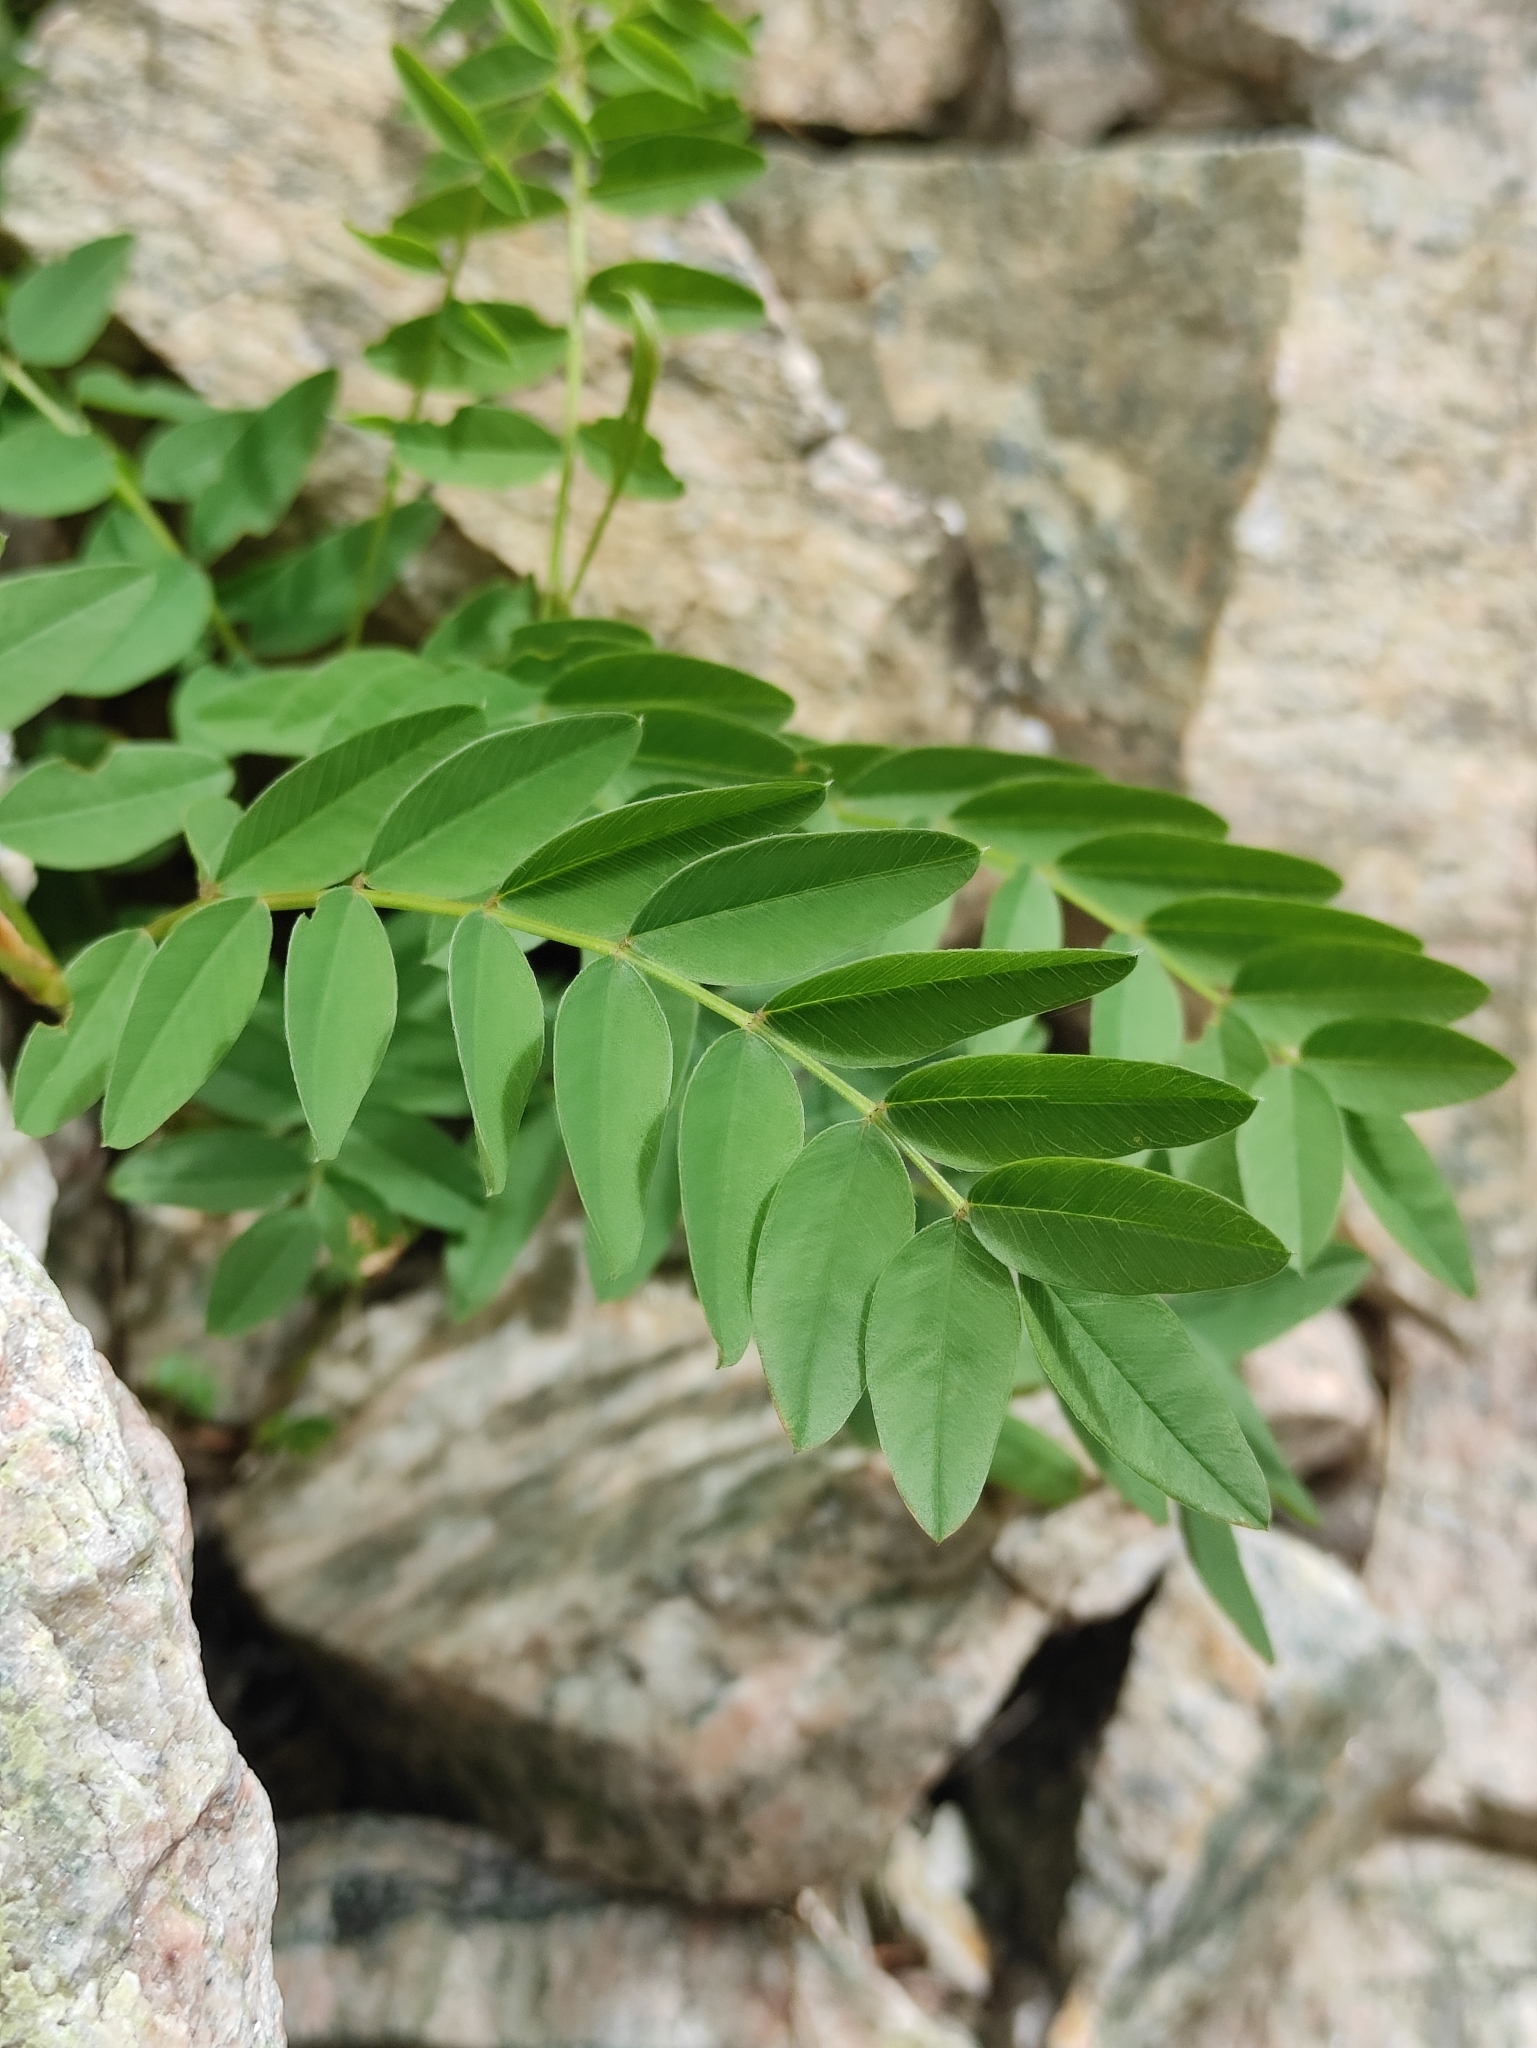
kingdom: Plantae
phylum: Tracheophyta
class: Magnoliopsida
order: Fabales
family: Fabaceae
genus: Hedysarum
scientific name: Hedysarum inundatum
